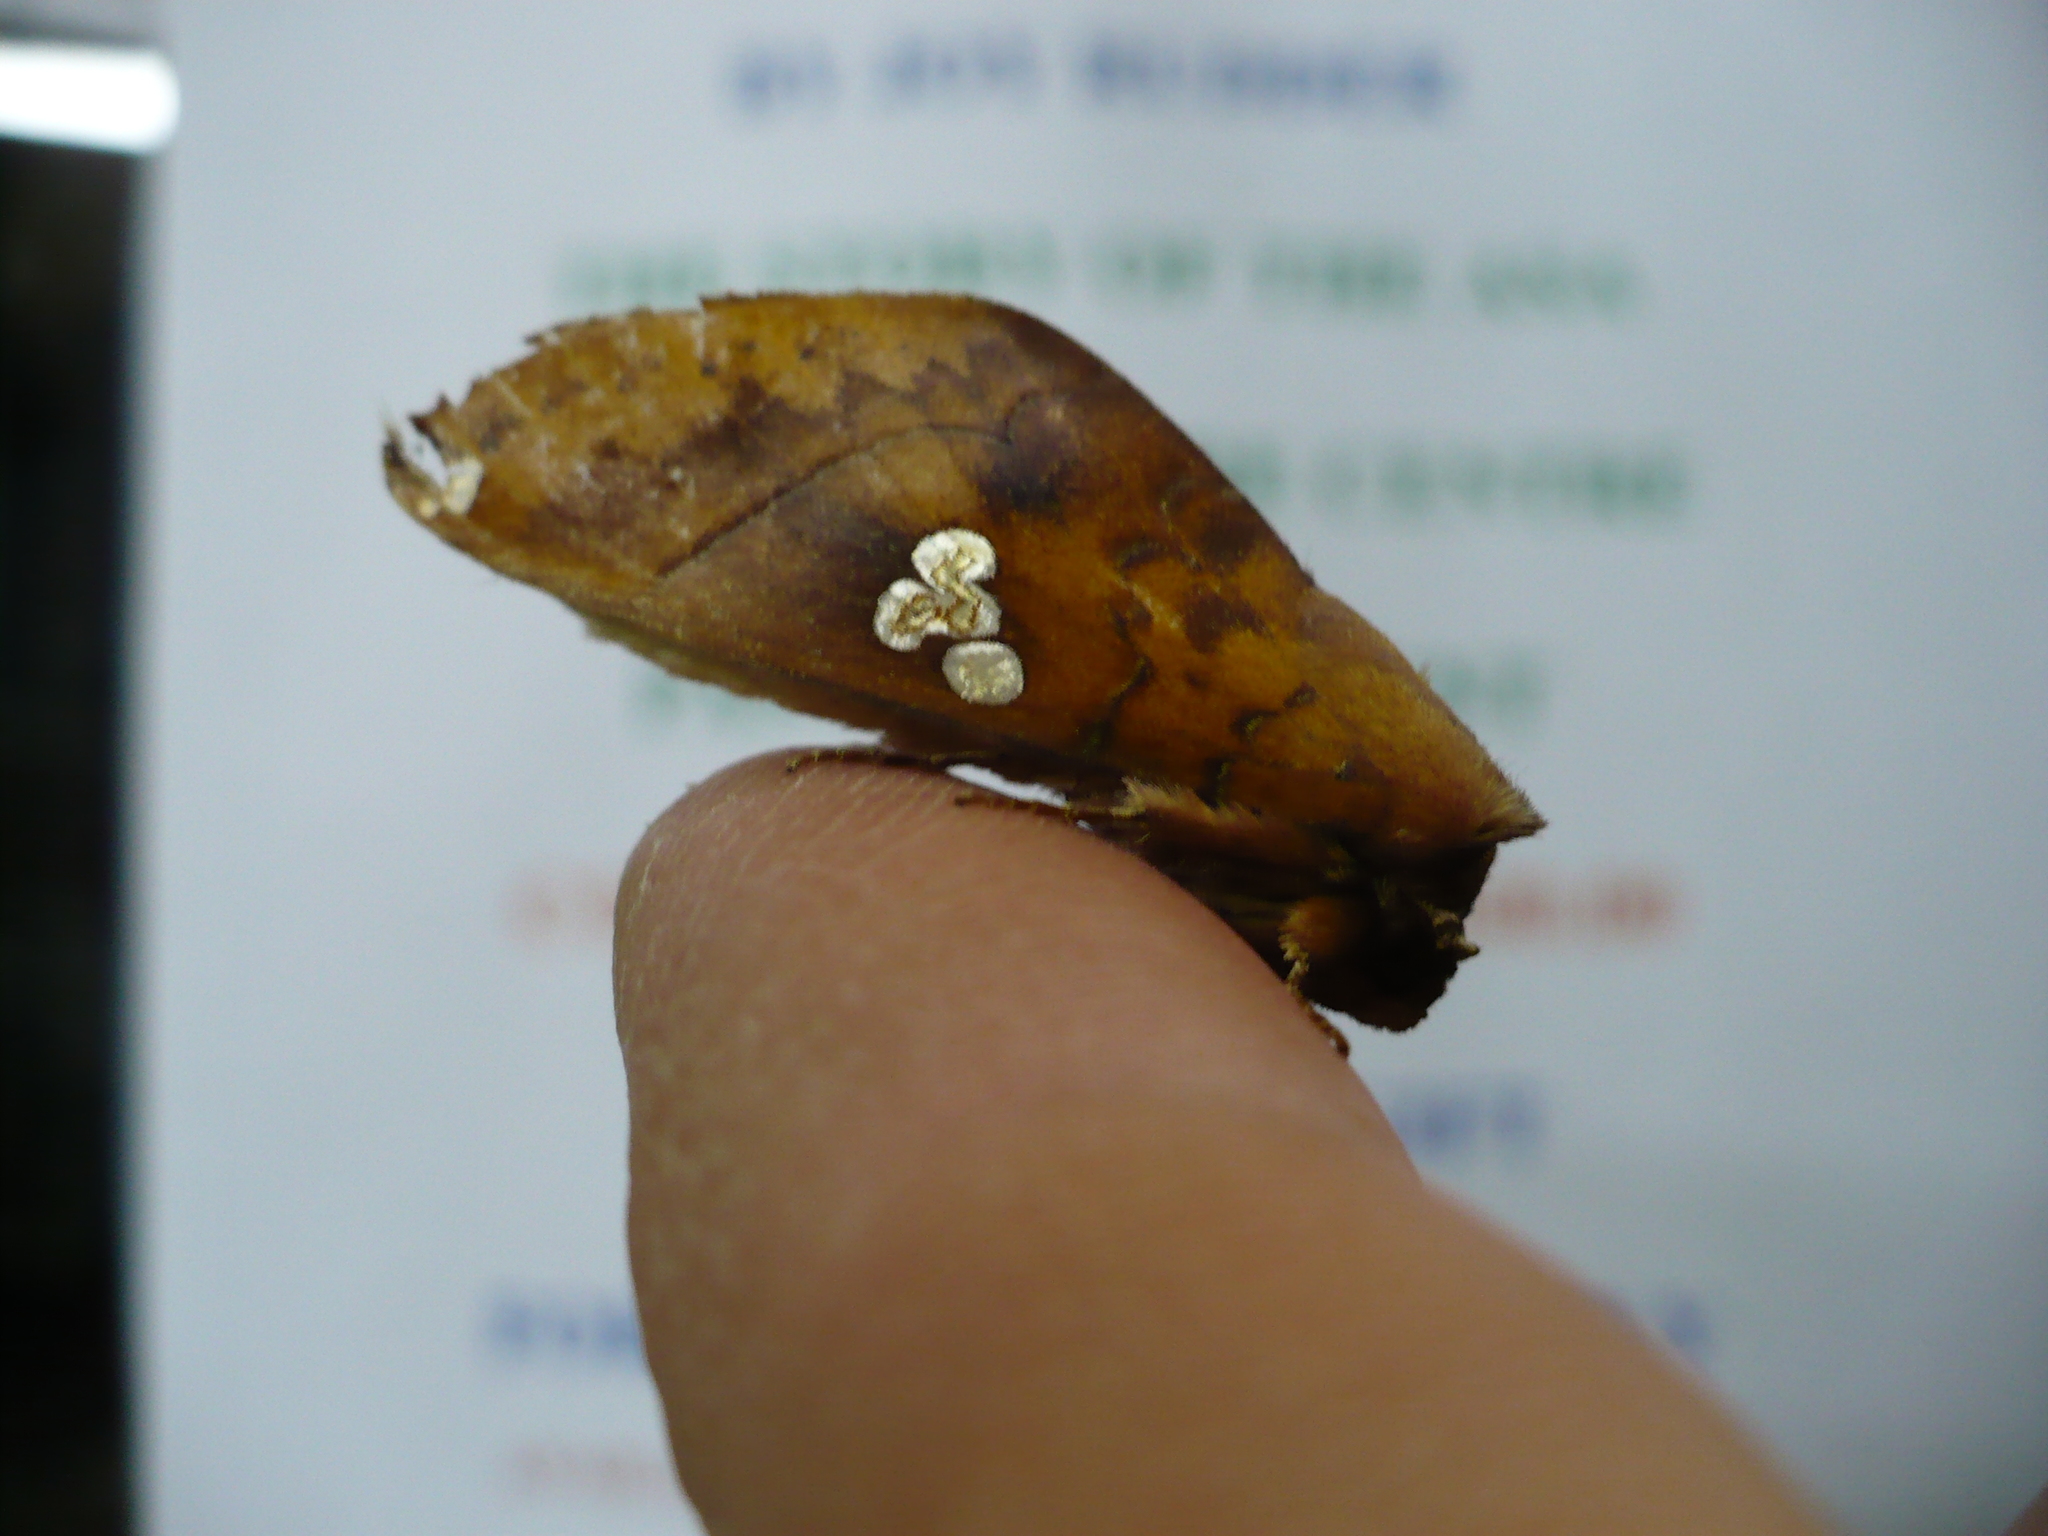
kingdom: Animalia
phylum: Arthropoda
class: Insecta
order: Lepidoptera
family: Notodontidae
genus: Hapigia
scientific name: Hapigia plateada
